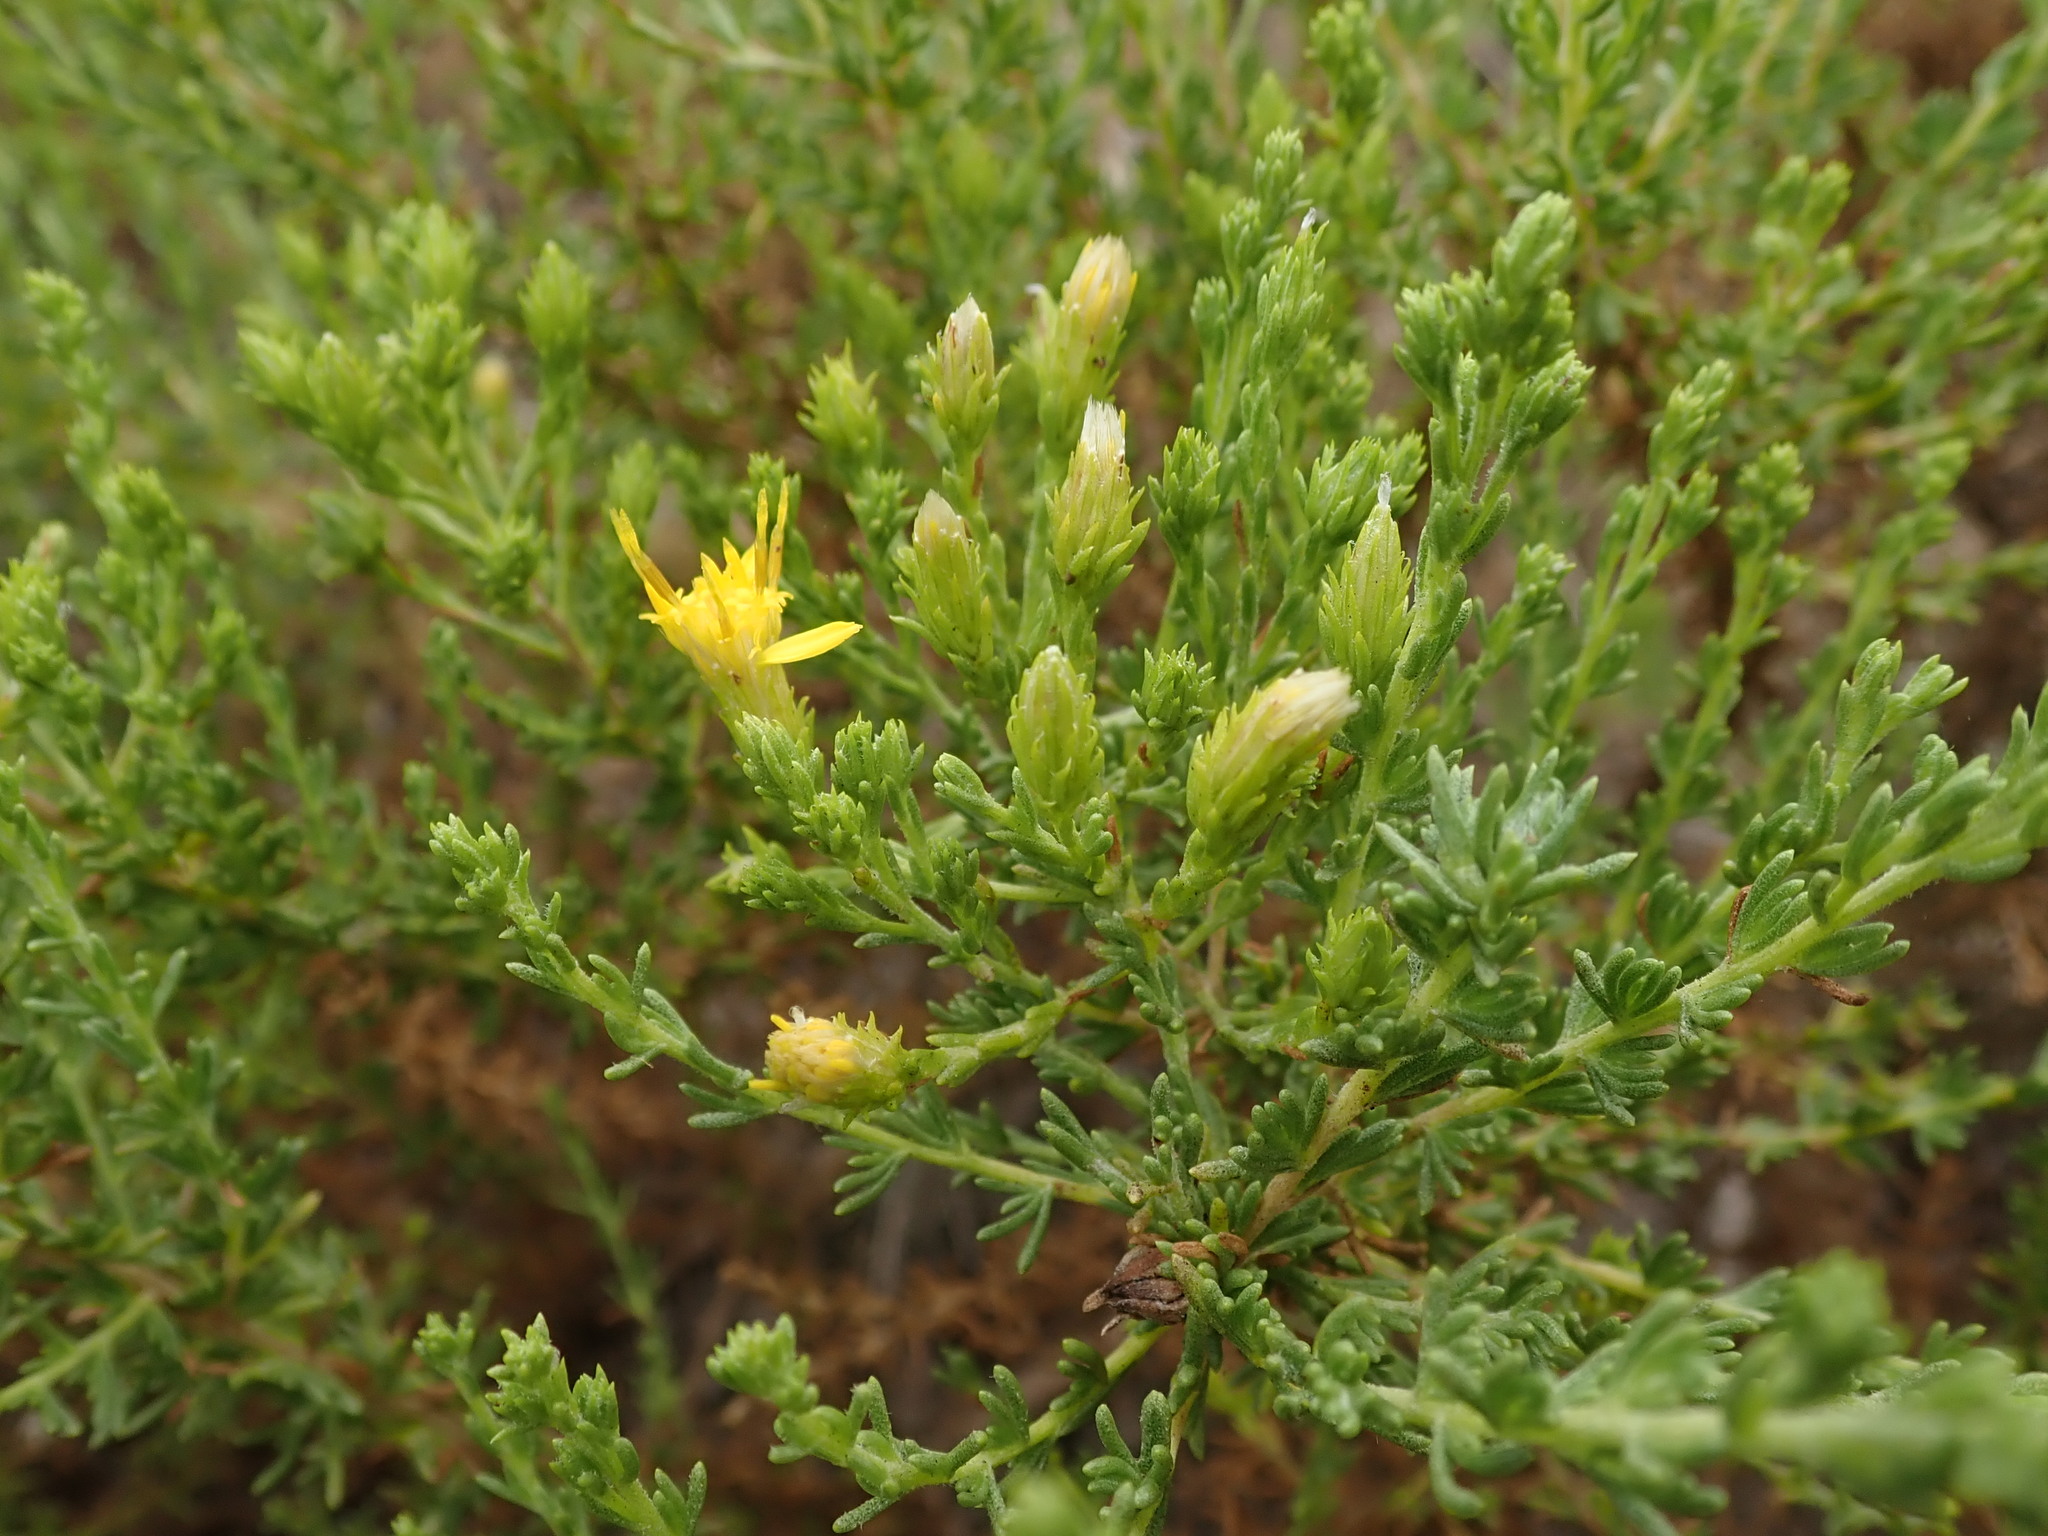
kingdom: Plantae
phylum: Tracheophyta
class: Magnoliopsida
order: Asterales
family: Asteraceae
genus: Ericameria
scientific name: Ericameria ericoides
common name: California goldenbush
